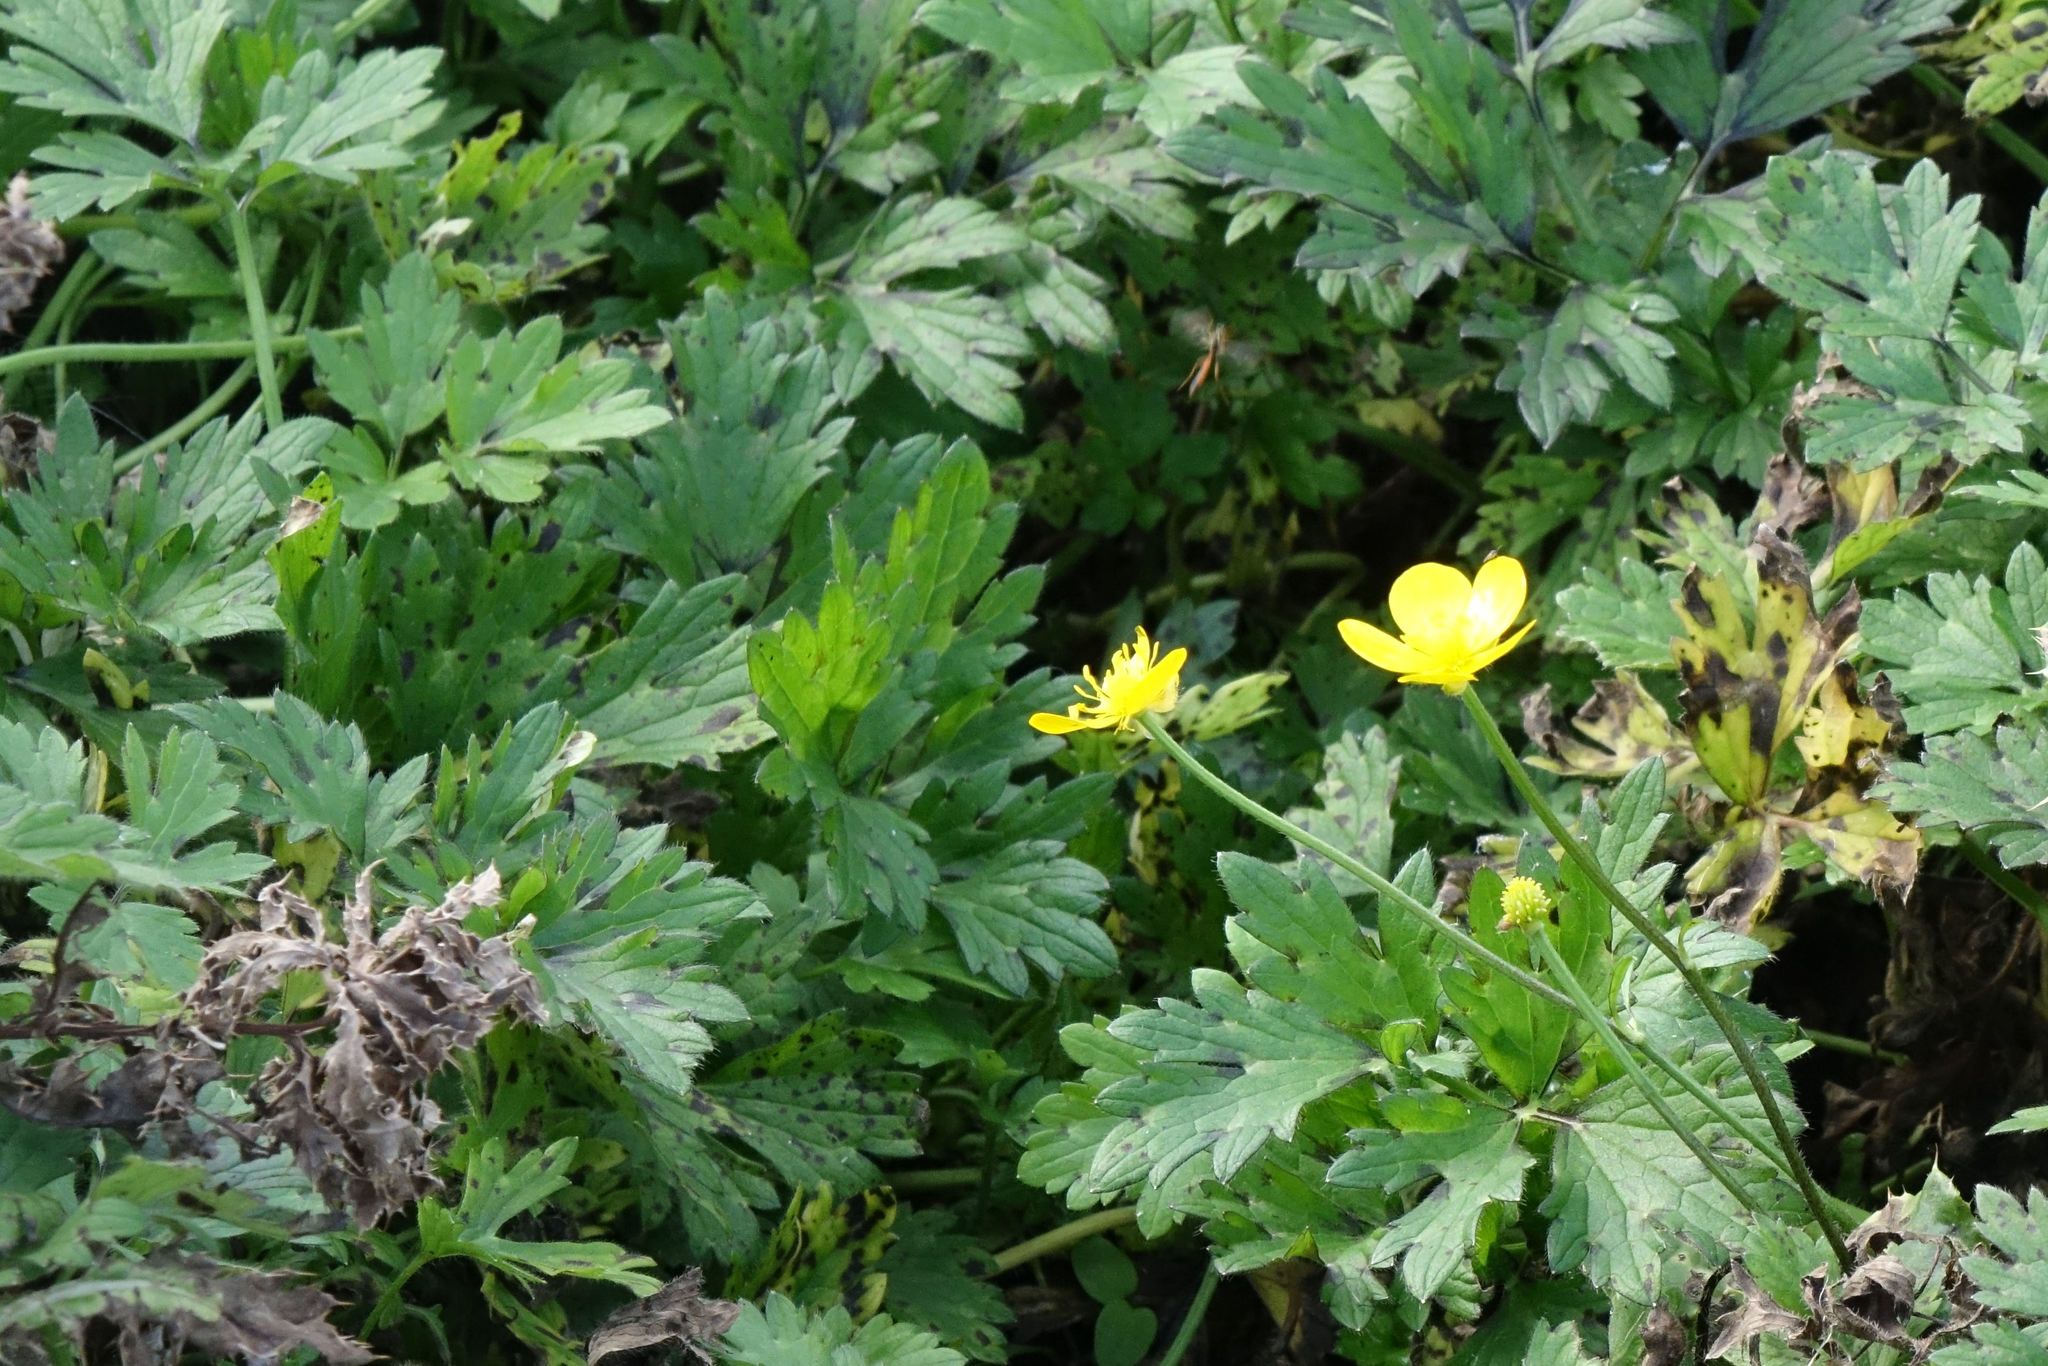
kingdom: Plantae
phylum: Tracheophyta
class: Magnoliopsida
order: Ranunculales
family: Ranunculaceae
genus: Ranunculus
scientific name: Ranunculus repens
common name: Creeping buttercup
